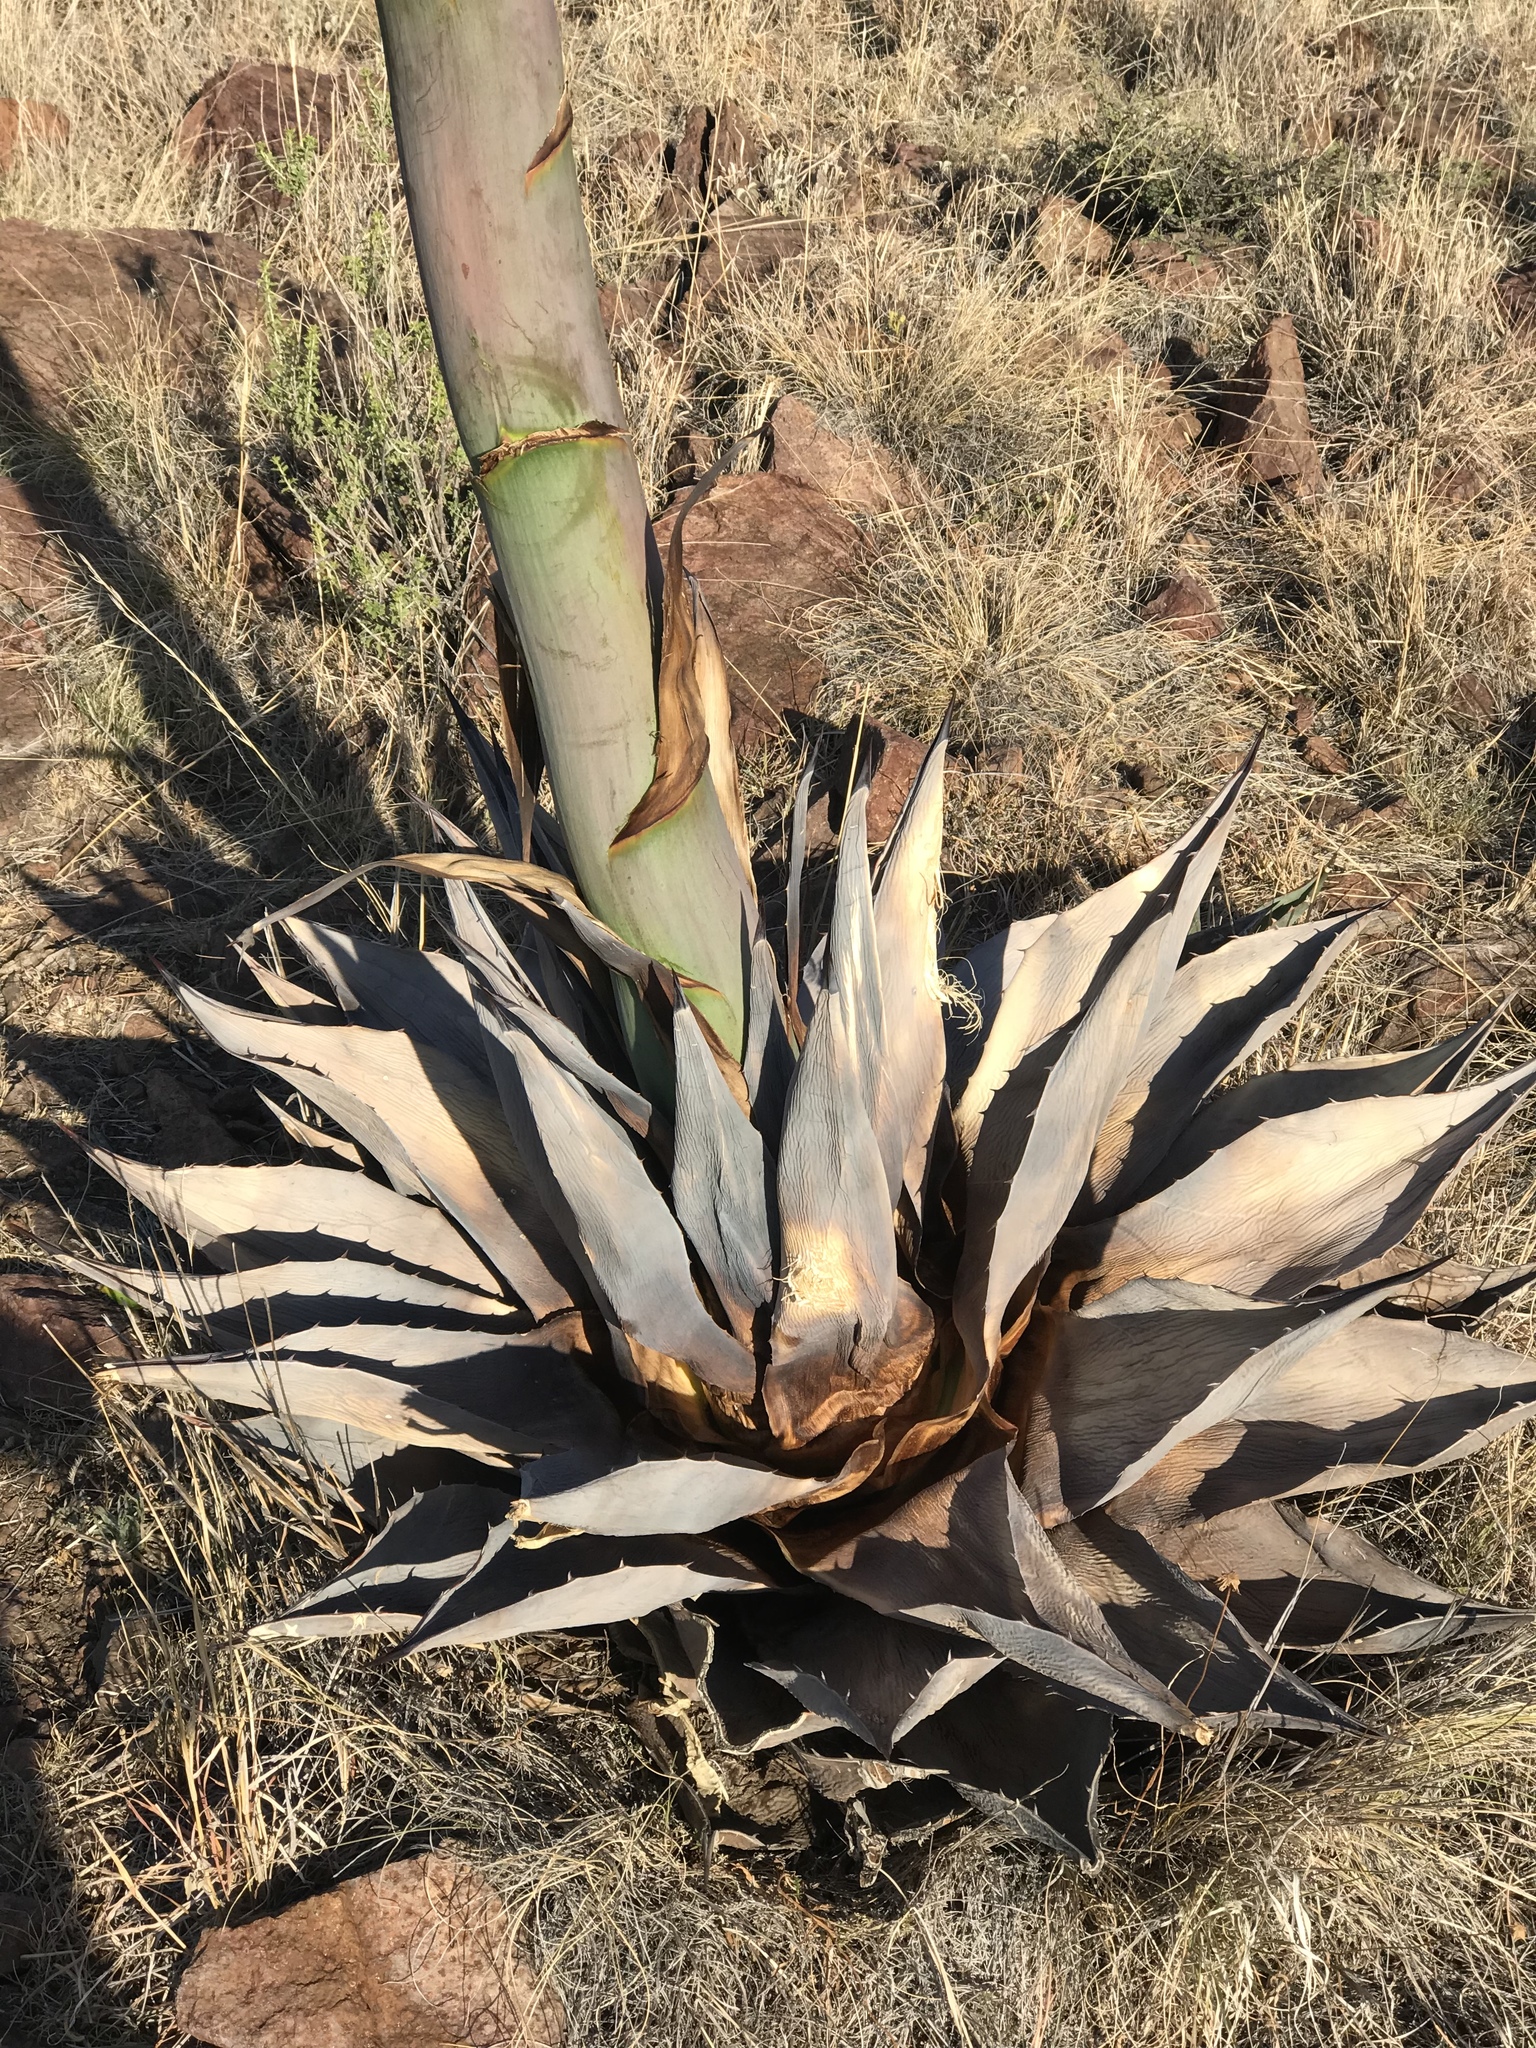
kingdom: Plantae
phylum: Tracheophyta
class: Liliopsida
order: Asparagales
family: Asparagaceae
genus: Agave
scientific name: Agave havardiana
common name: Havard agave
